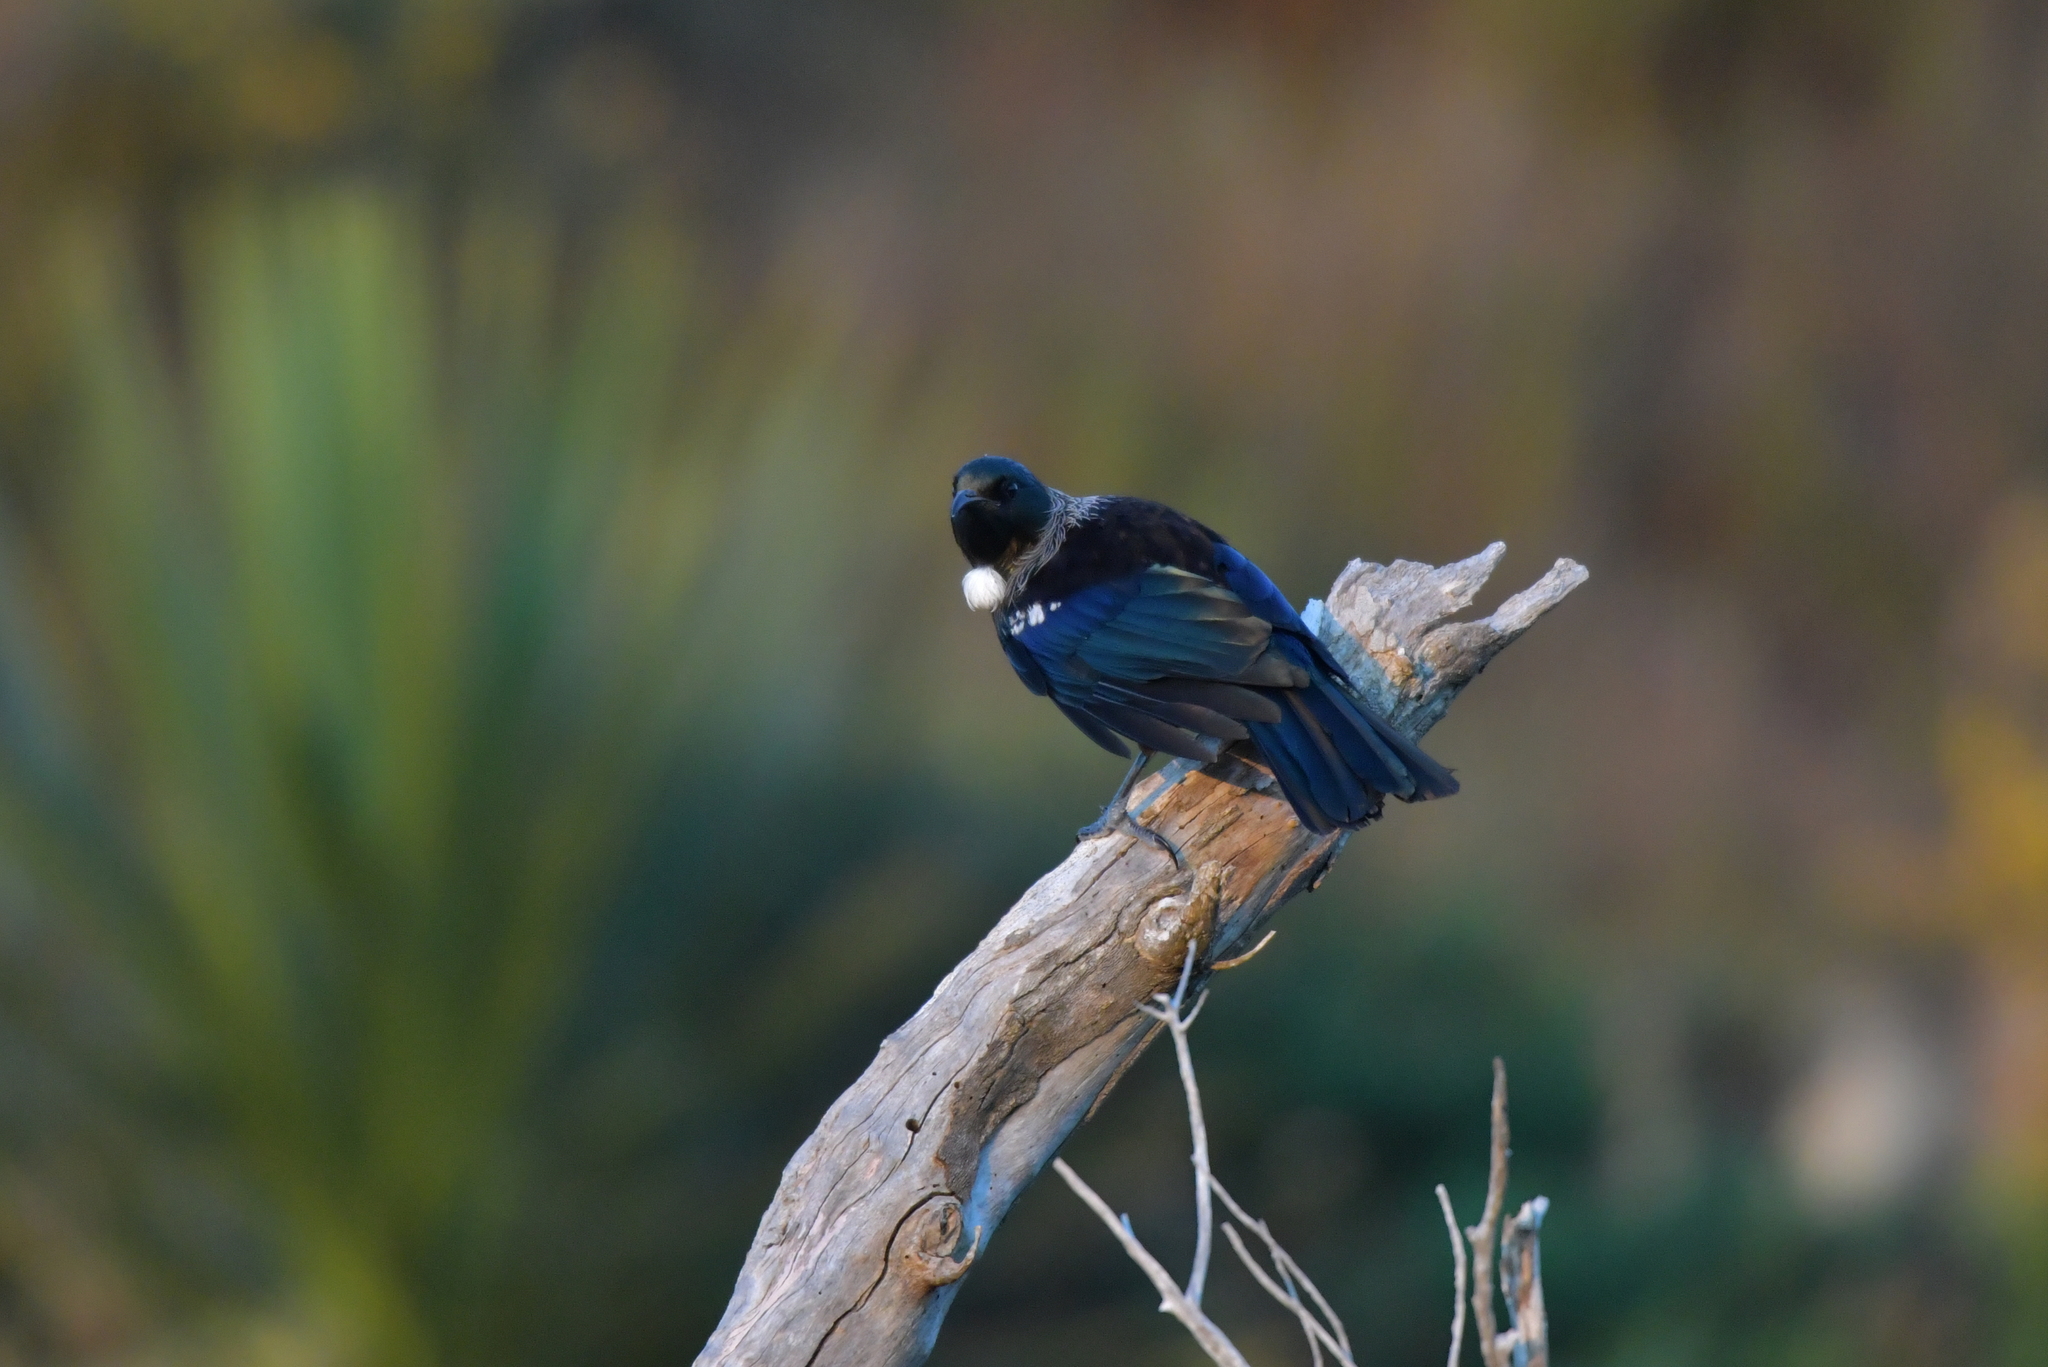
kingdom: Animalia
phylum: Chordata
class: Aves
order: Passeriformes
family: Meliphagidae
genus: Prosthemadera
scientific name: Prosthemadera novaeseelandiae
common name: Tui
